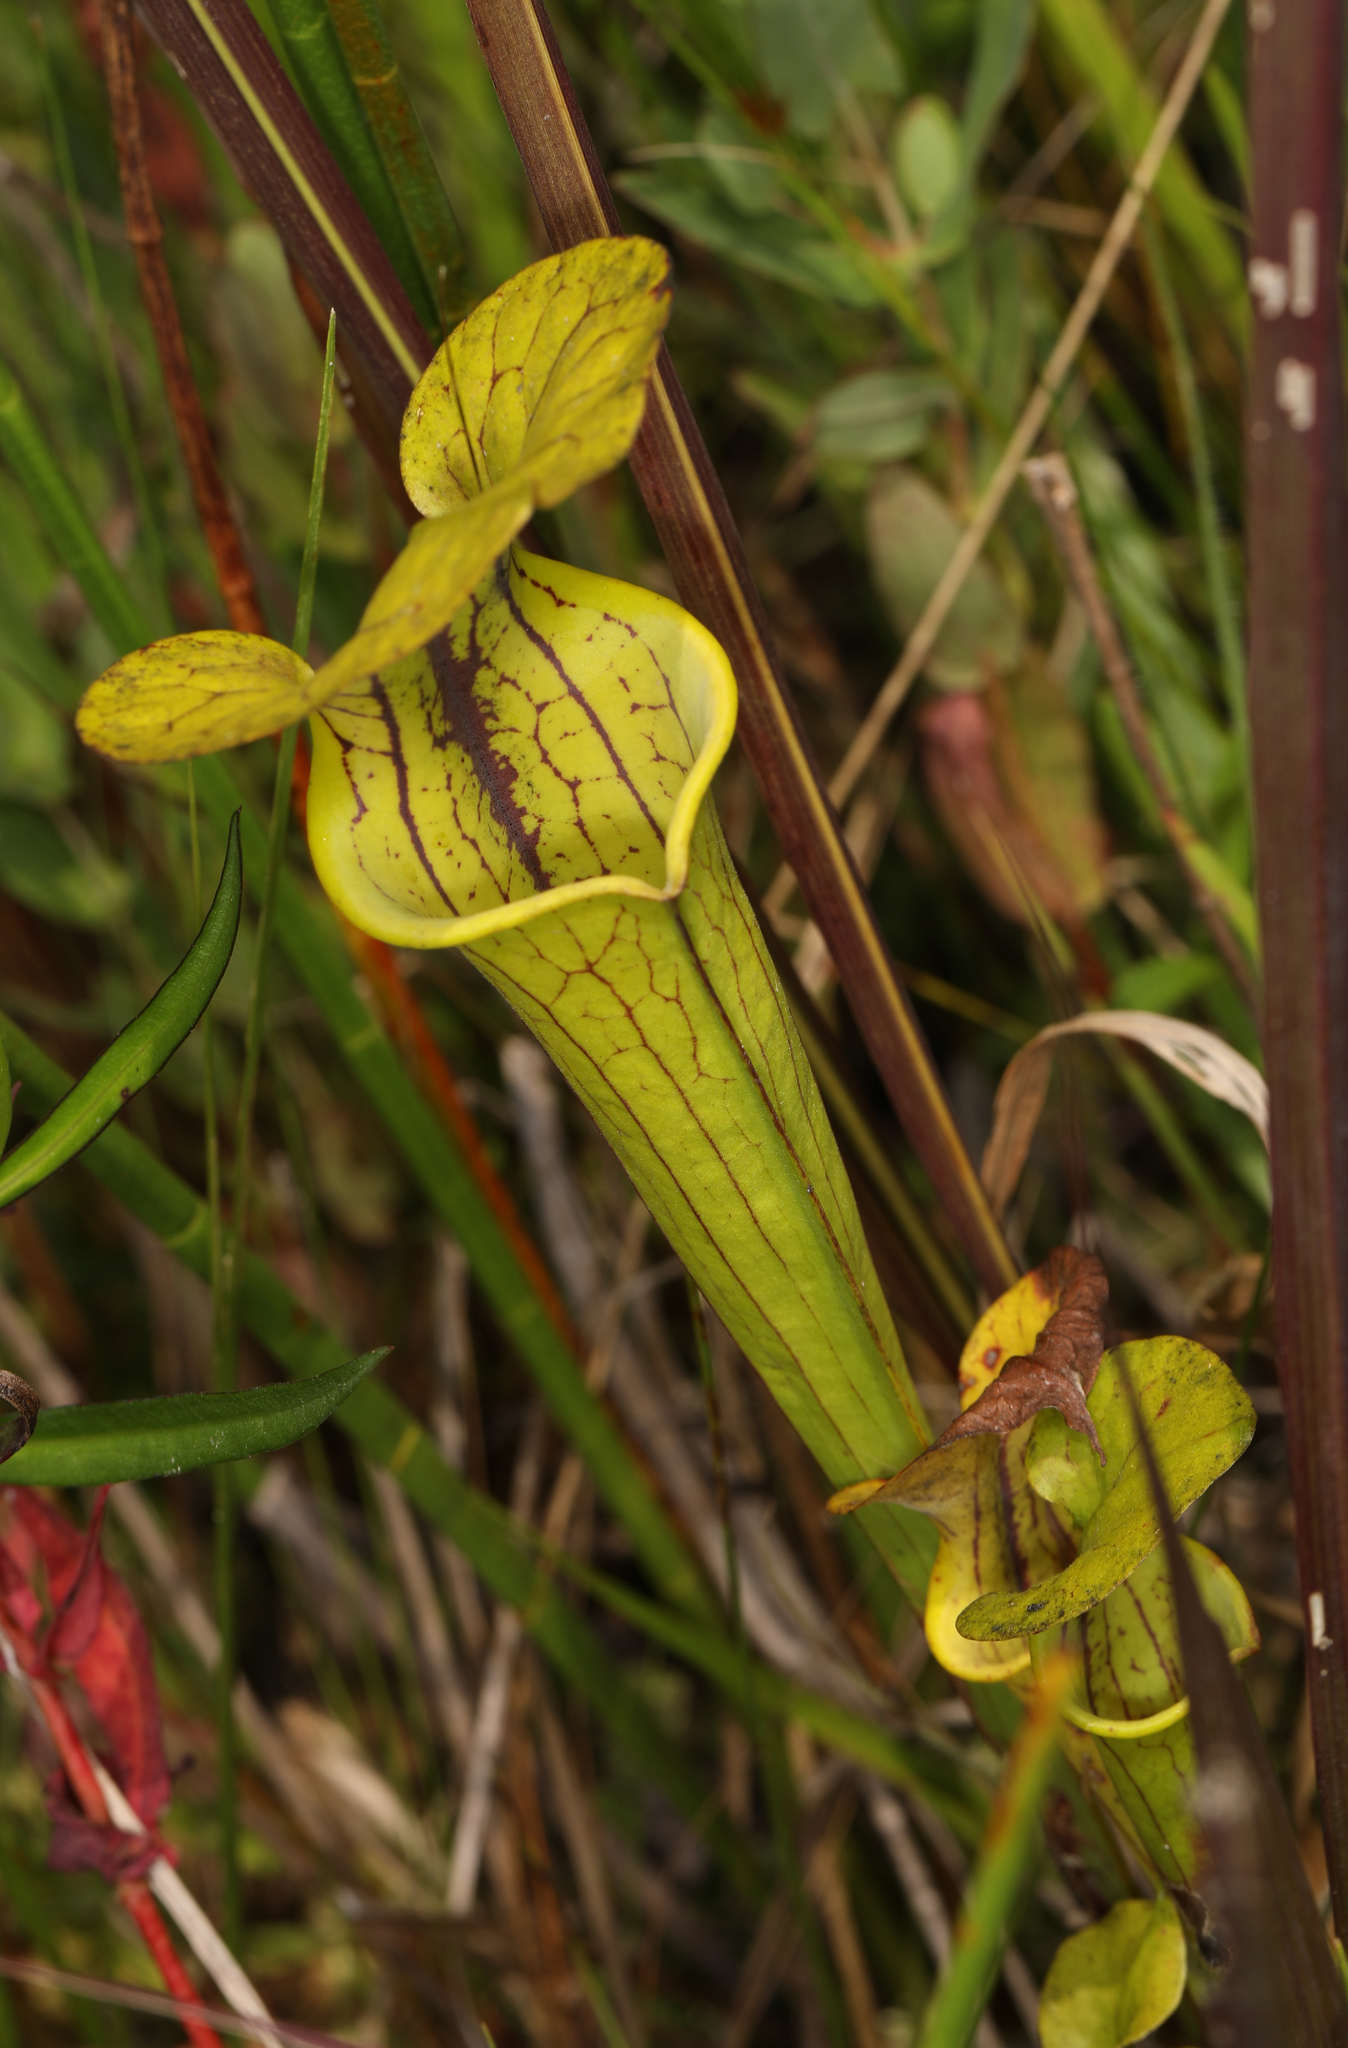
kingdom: Plantae
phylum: Tracheophyta
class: Magnoliopsida
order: Ericales
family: Sarraceniaceae
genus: Sarracenia
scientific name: Sarracenia flava
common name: Trumpets
